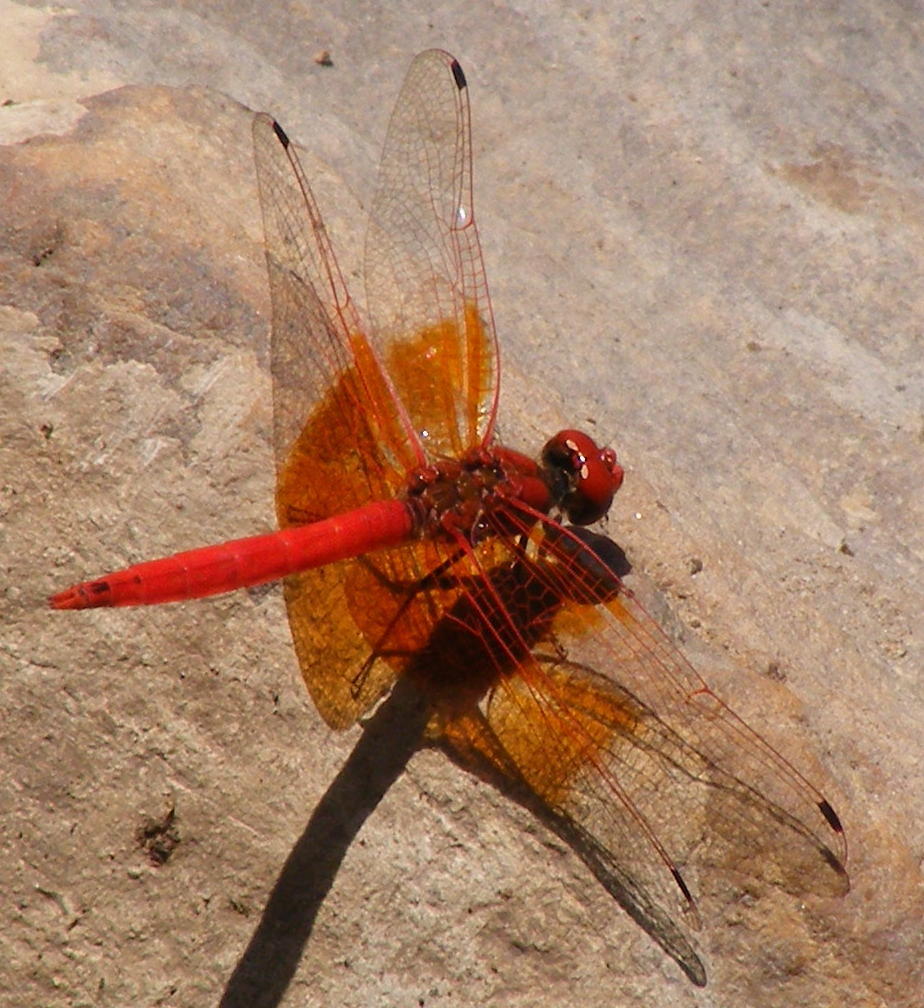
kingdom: Animalia
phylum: Arthropoda
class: Insecta
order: Odonata
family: Libellulidae
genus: Trithemis
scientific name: Trithemis kirbyi
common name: Kirby's dropwing
